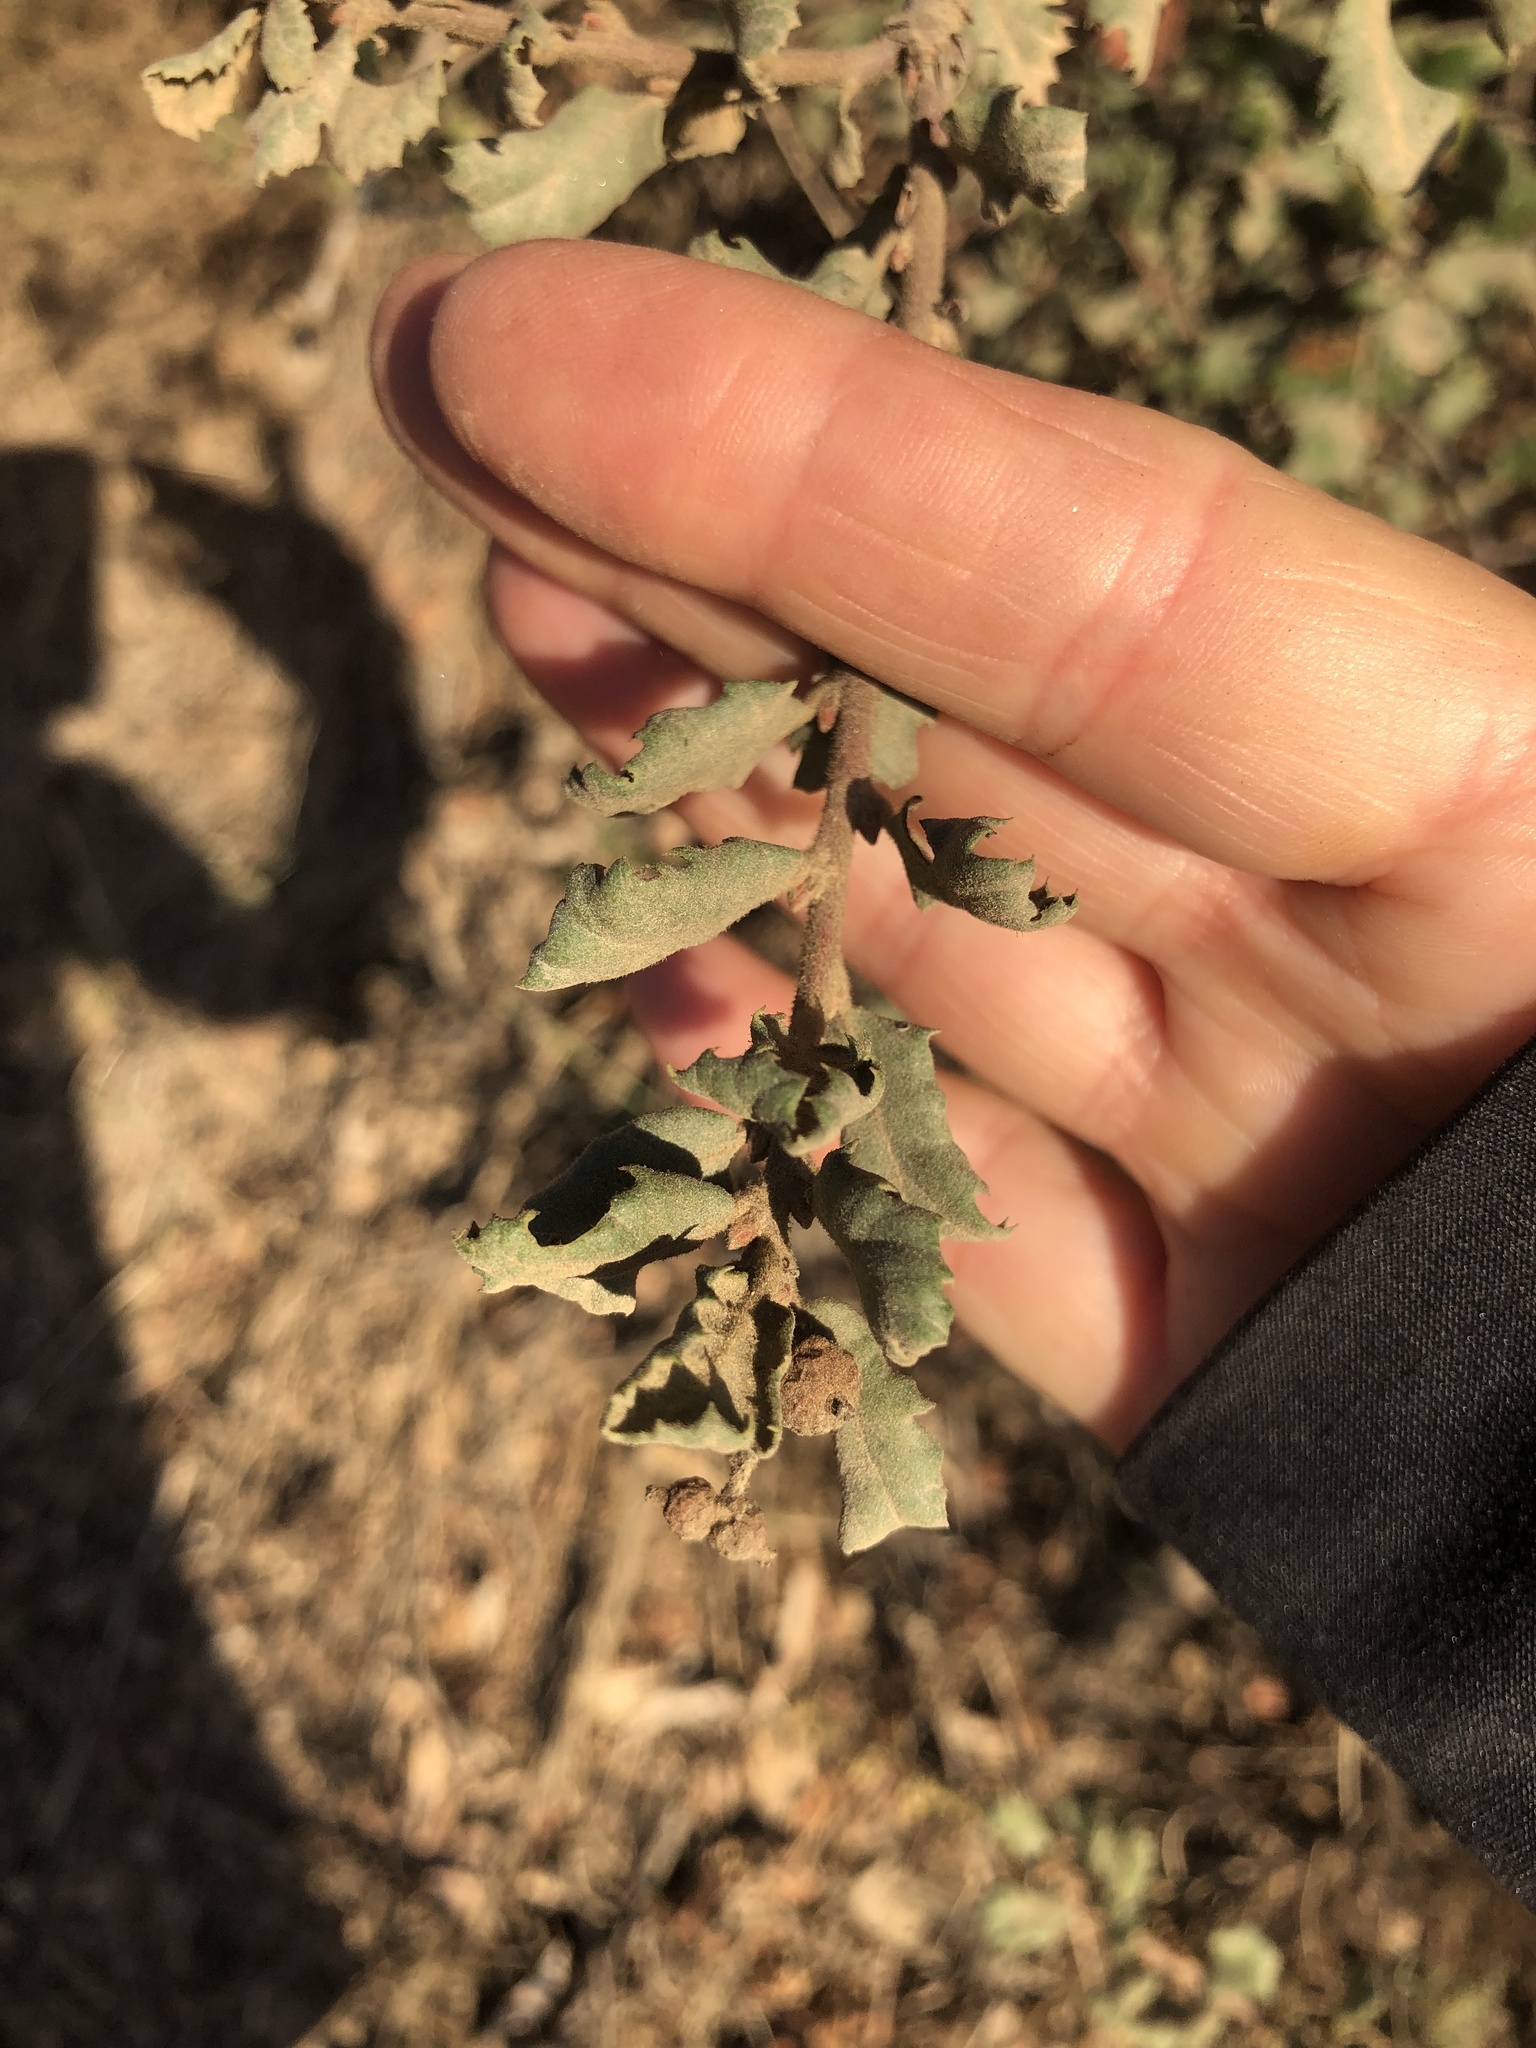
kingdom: Plantae
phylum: Tracheophyta
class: Magnoliopsida
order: Fagales
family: Fagaceae
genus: Quercus
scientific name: Quercus durata
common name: Leather oak
